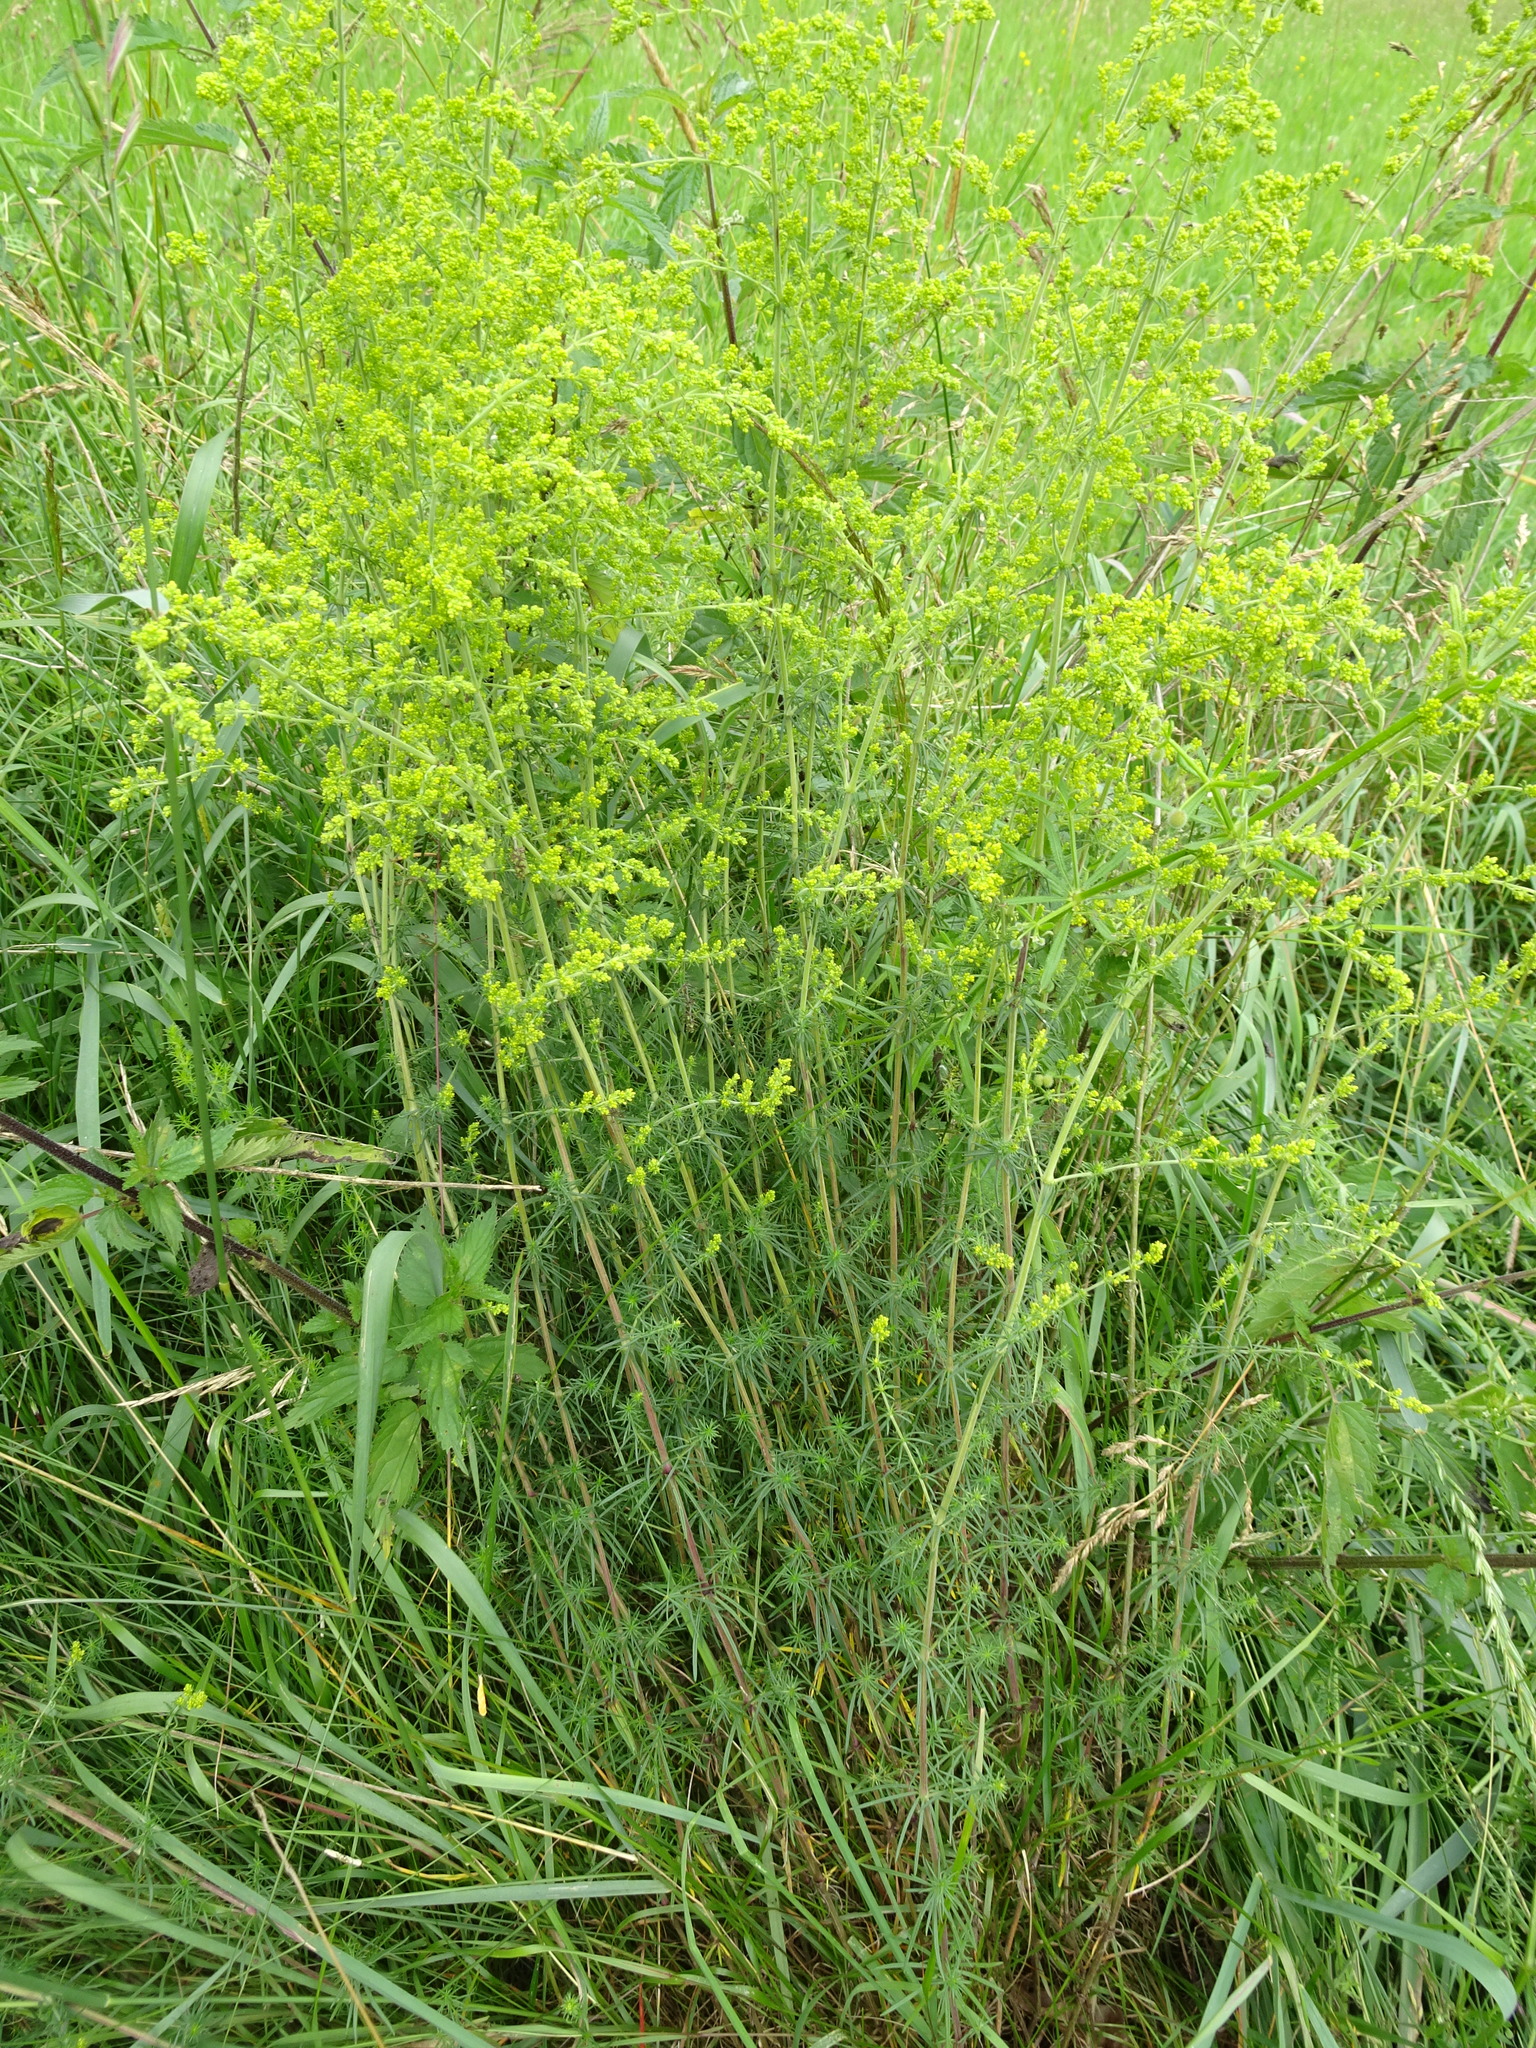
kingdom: Plantae
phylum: Tracheophyta
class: Magnoliopsida
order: Gentianales
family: Rubiaceae
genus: Galium
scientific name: Galium verum
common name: Lady's bedstraw
